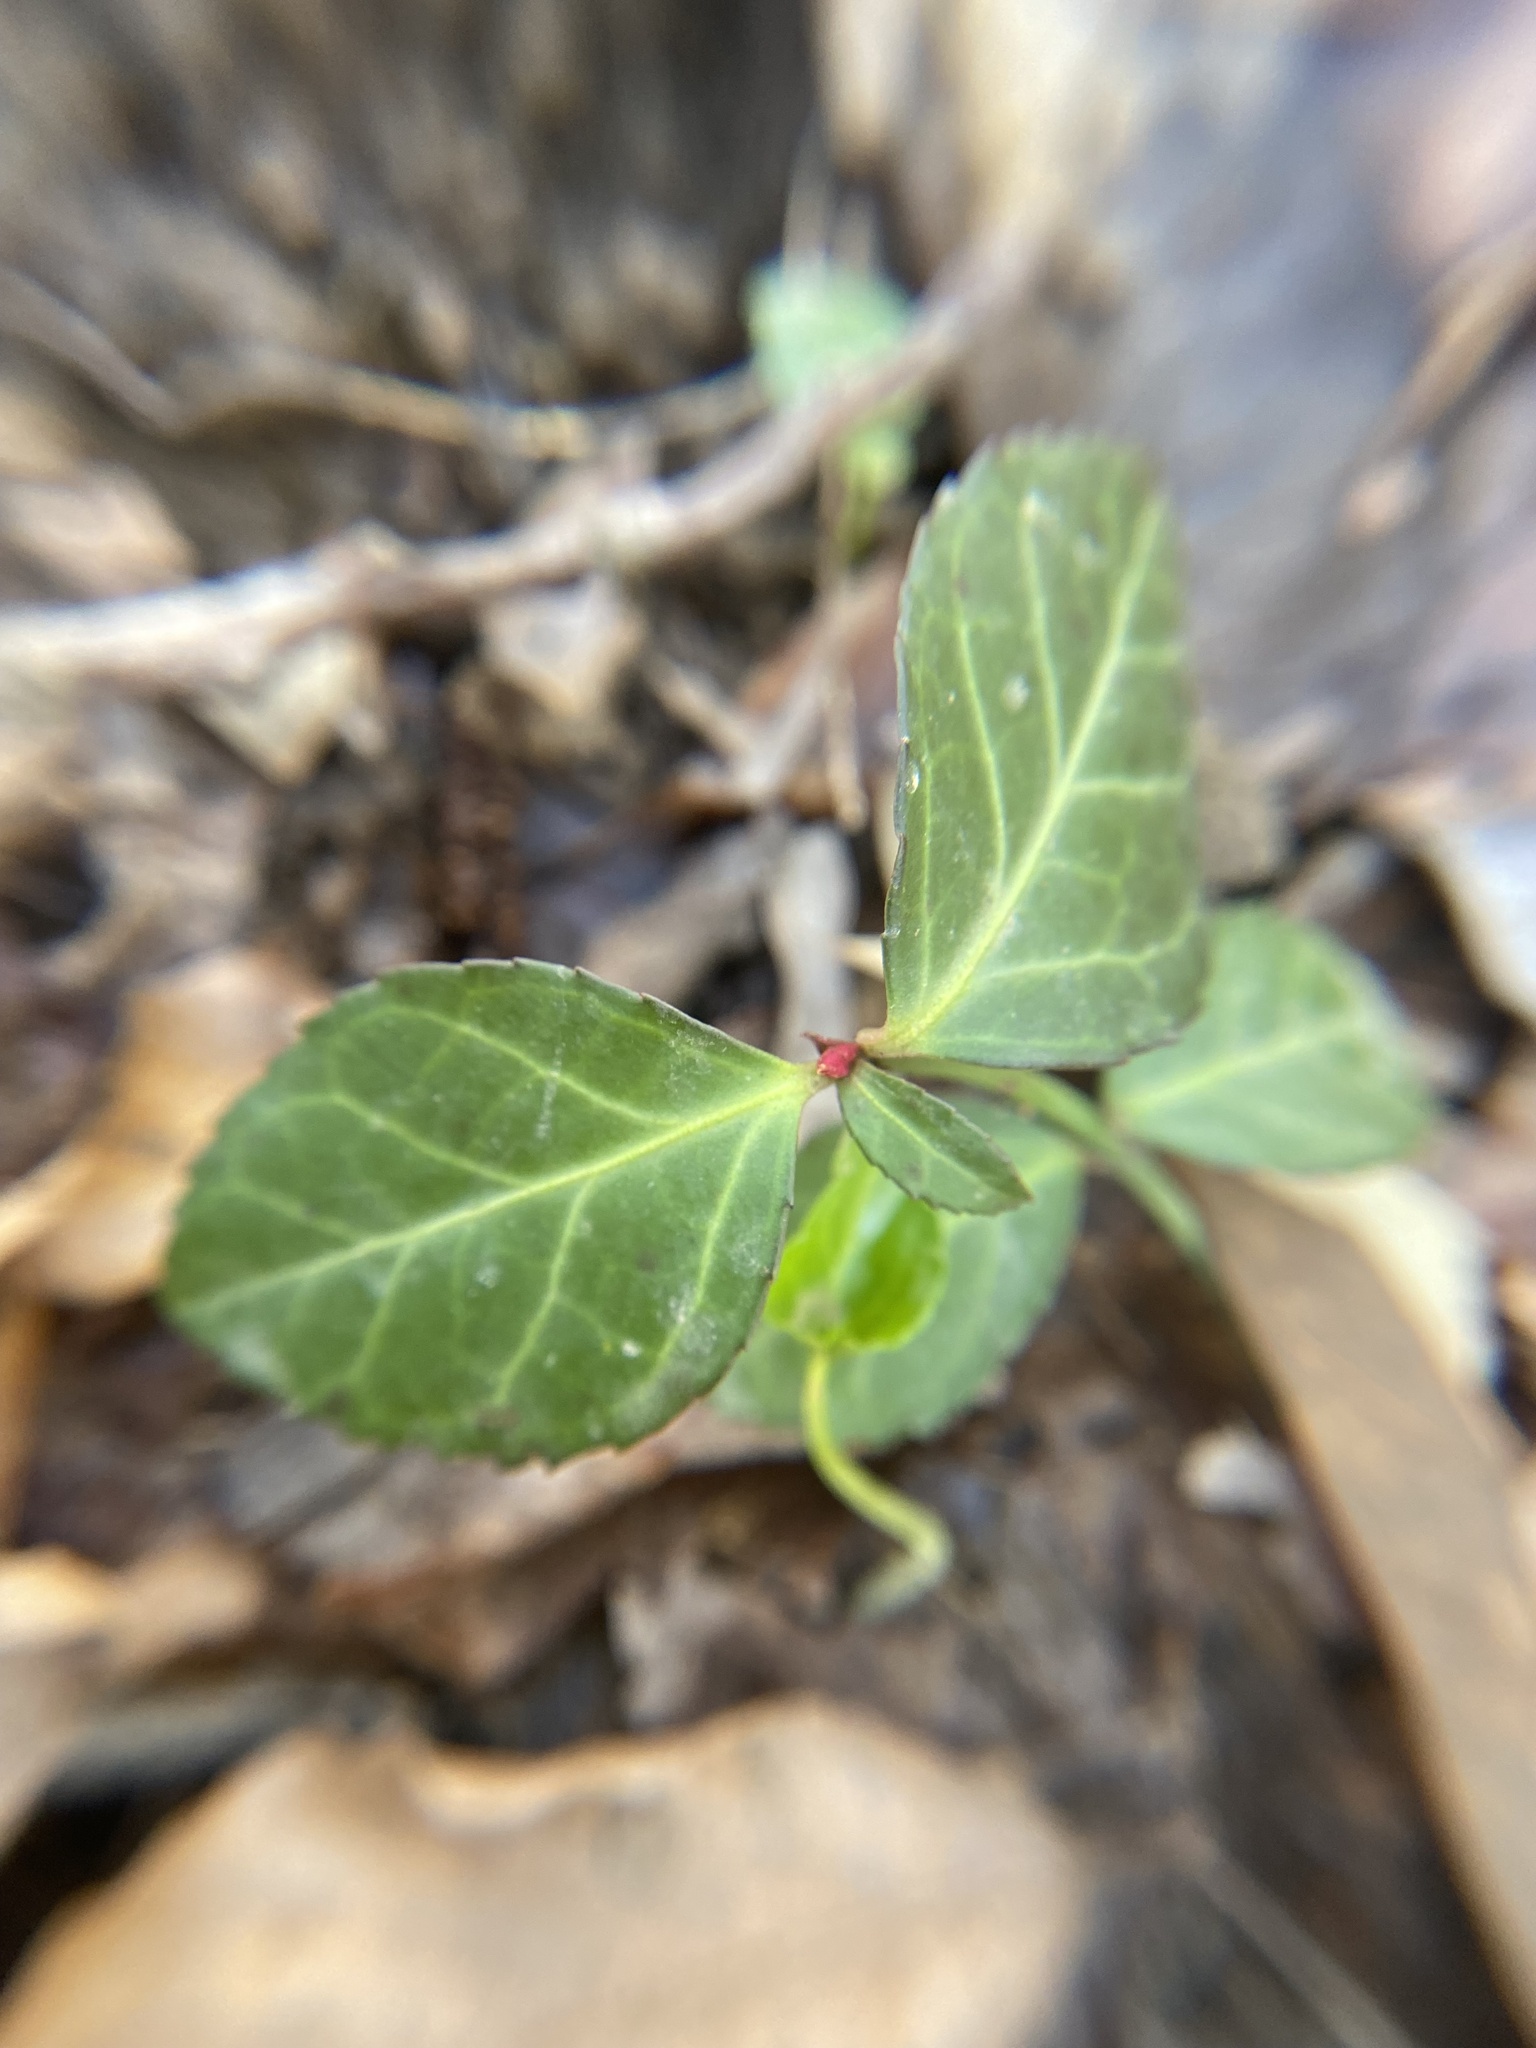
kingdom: Plantae
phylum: Tracheophyta
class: Magnoliopsida
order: Celastrales
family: Celastraceae
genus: Euonymus
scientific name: Euonymus fortunei
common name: Climbing euonymus
